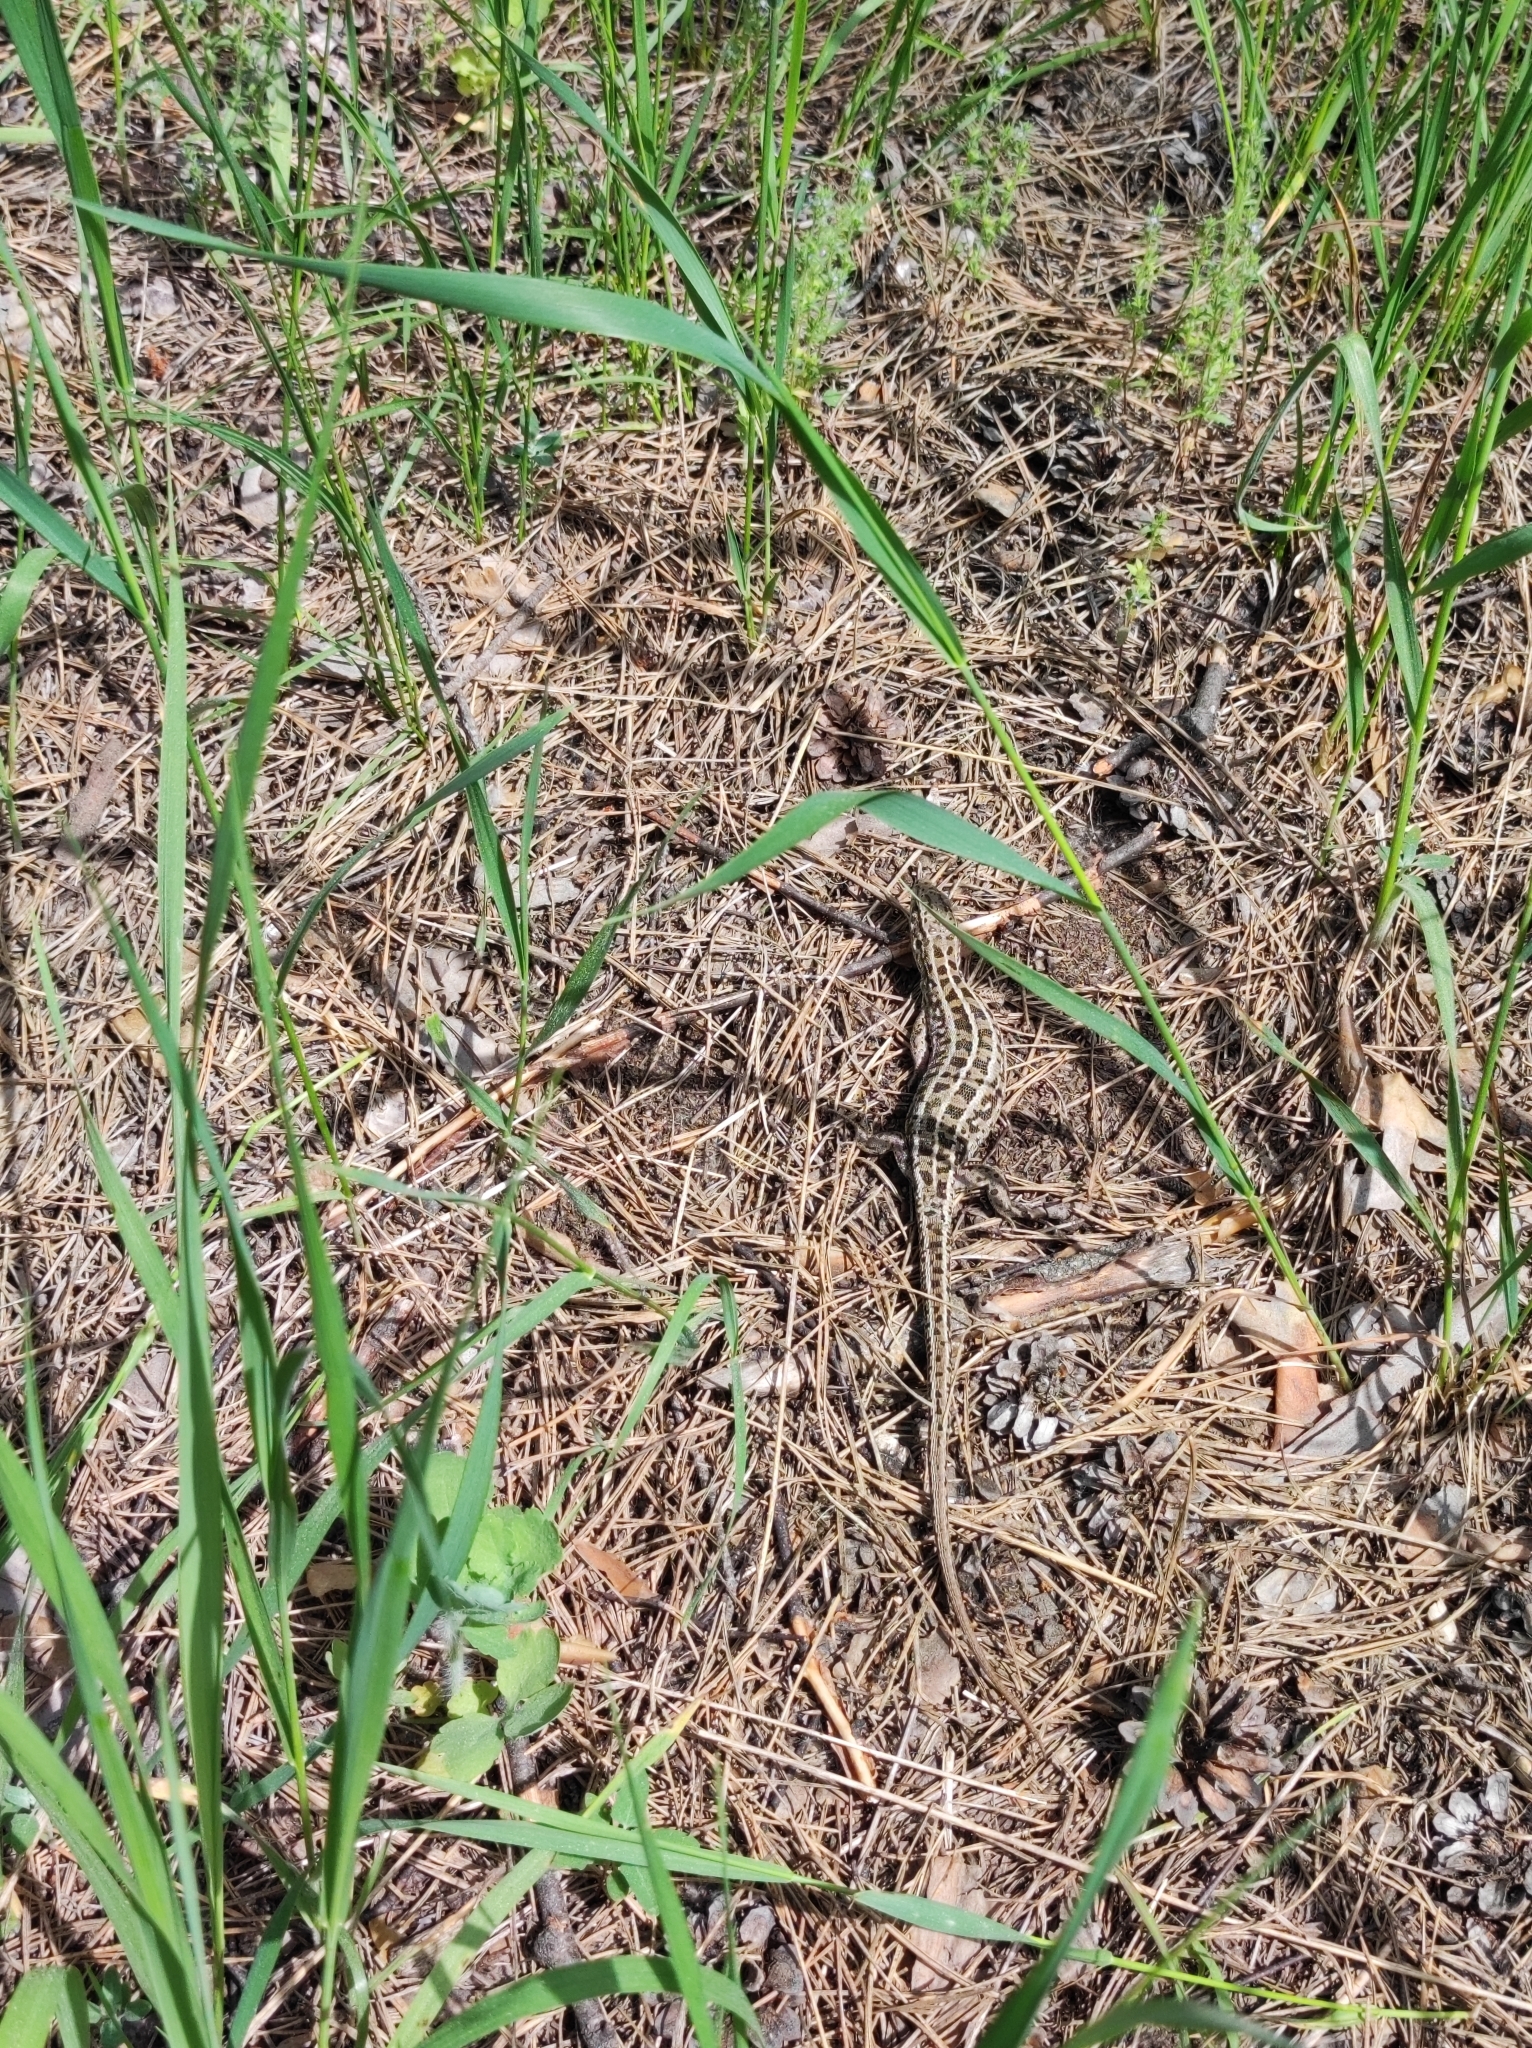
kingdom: Animalia
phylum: Chordata
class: Squamata
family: Lacertidae
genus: Lacerta
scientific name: Lacerta agilis
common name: Sand lizard
